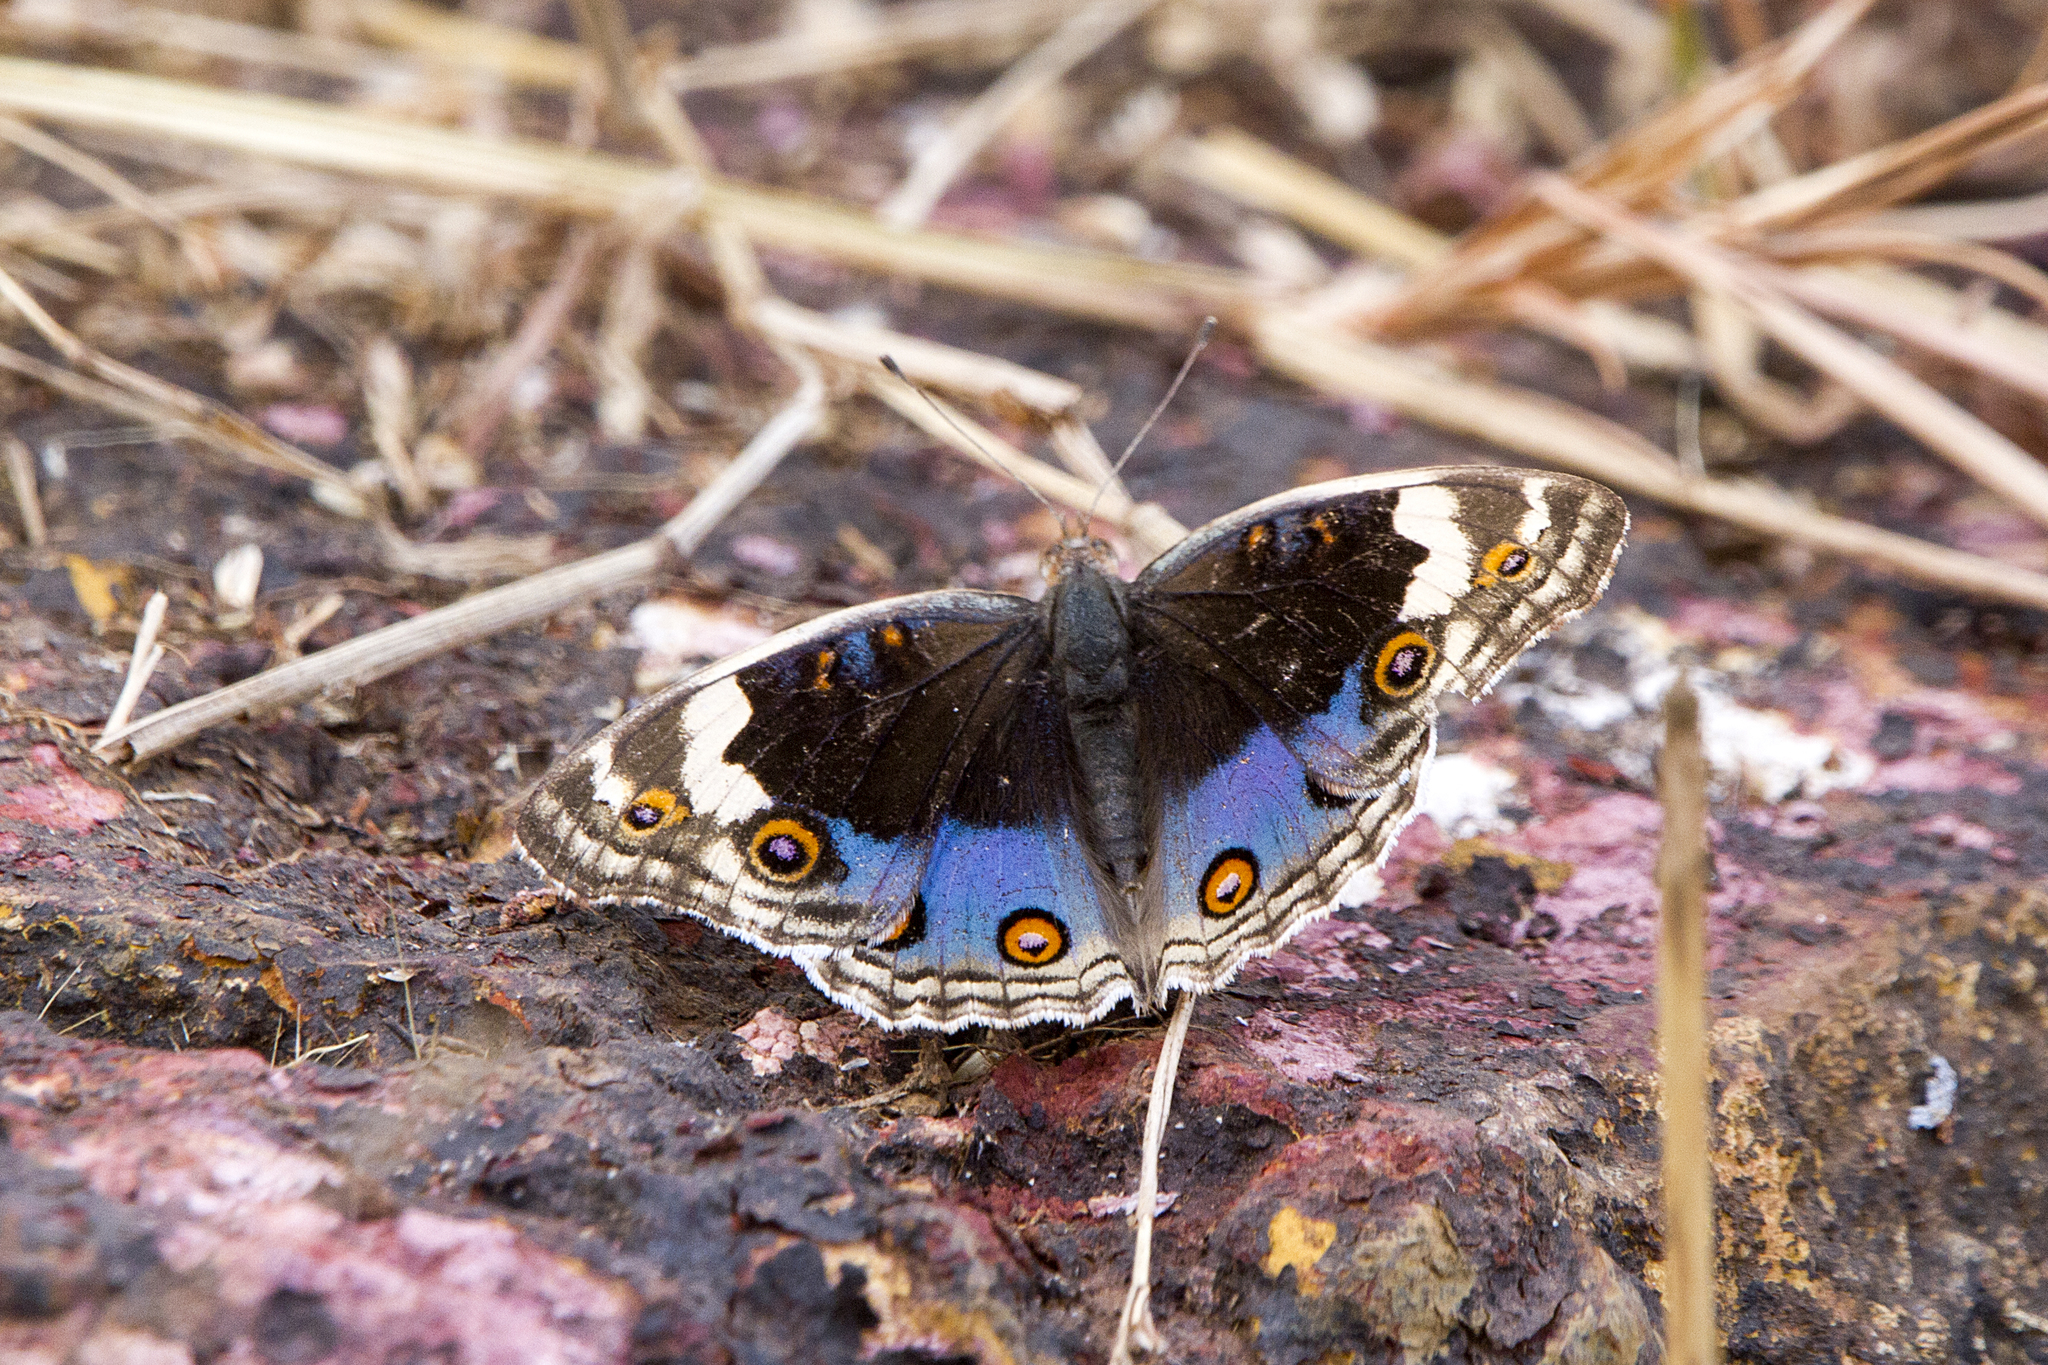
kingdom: Animalia
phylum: Arthropoda
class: Insecta
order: Lepidoptera
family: Nymphalidae
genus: Junonia
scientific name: Junonia orithya
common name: Blue pansy
